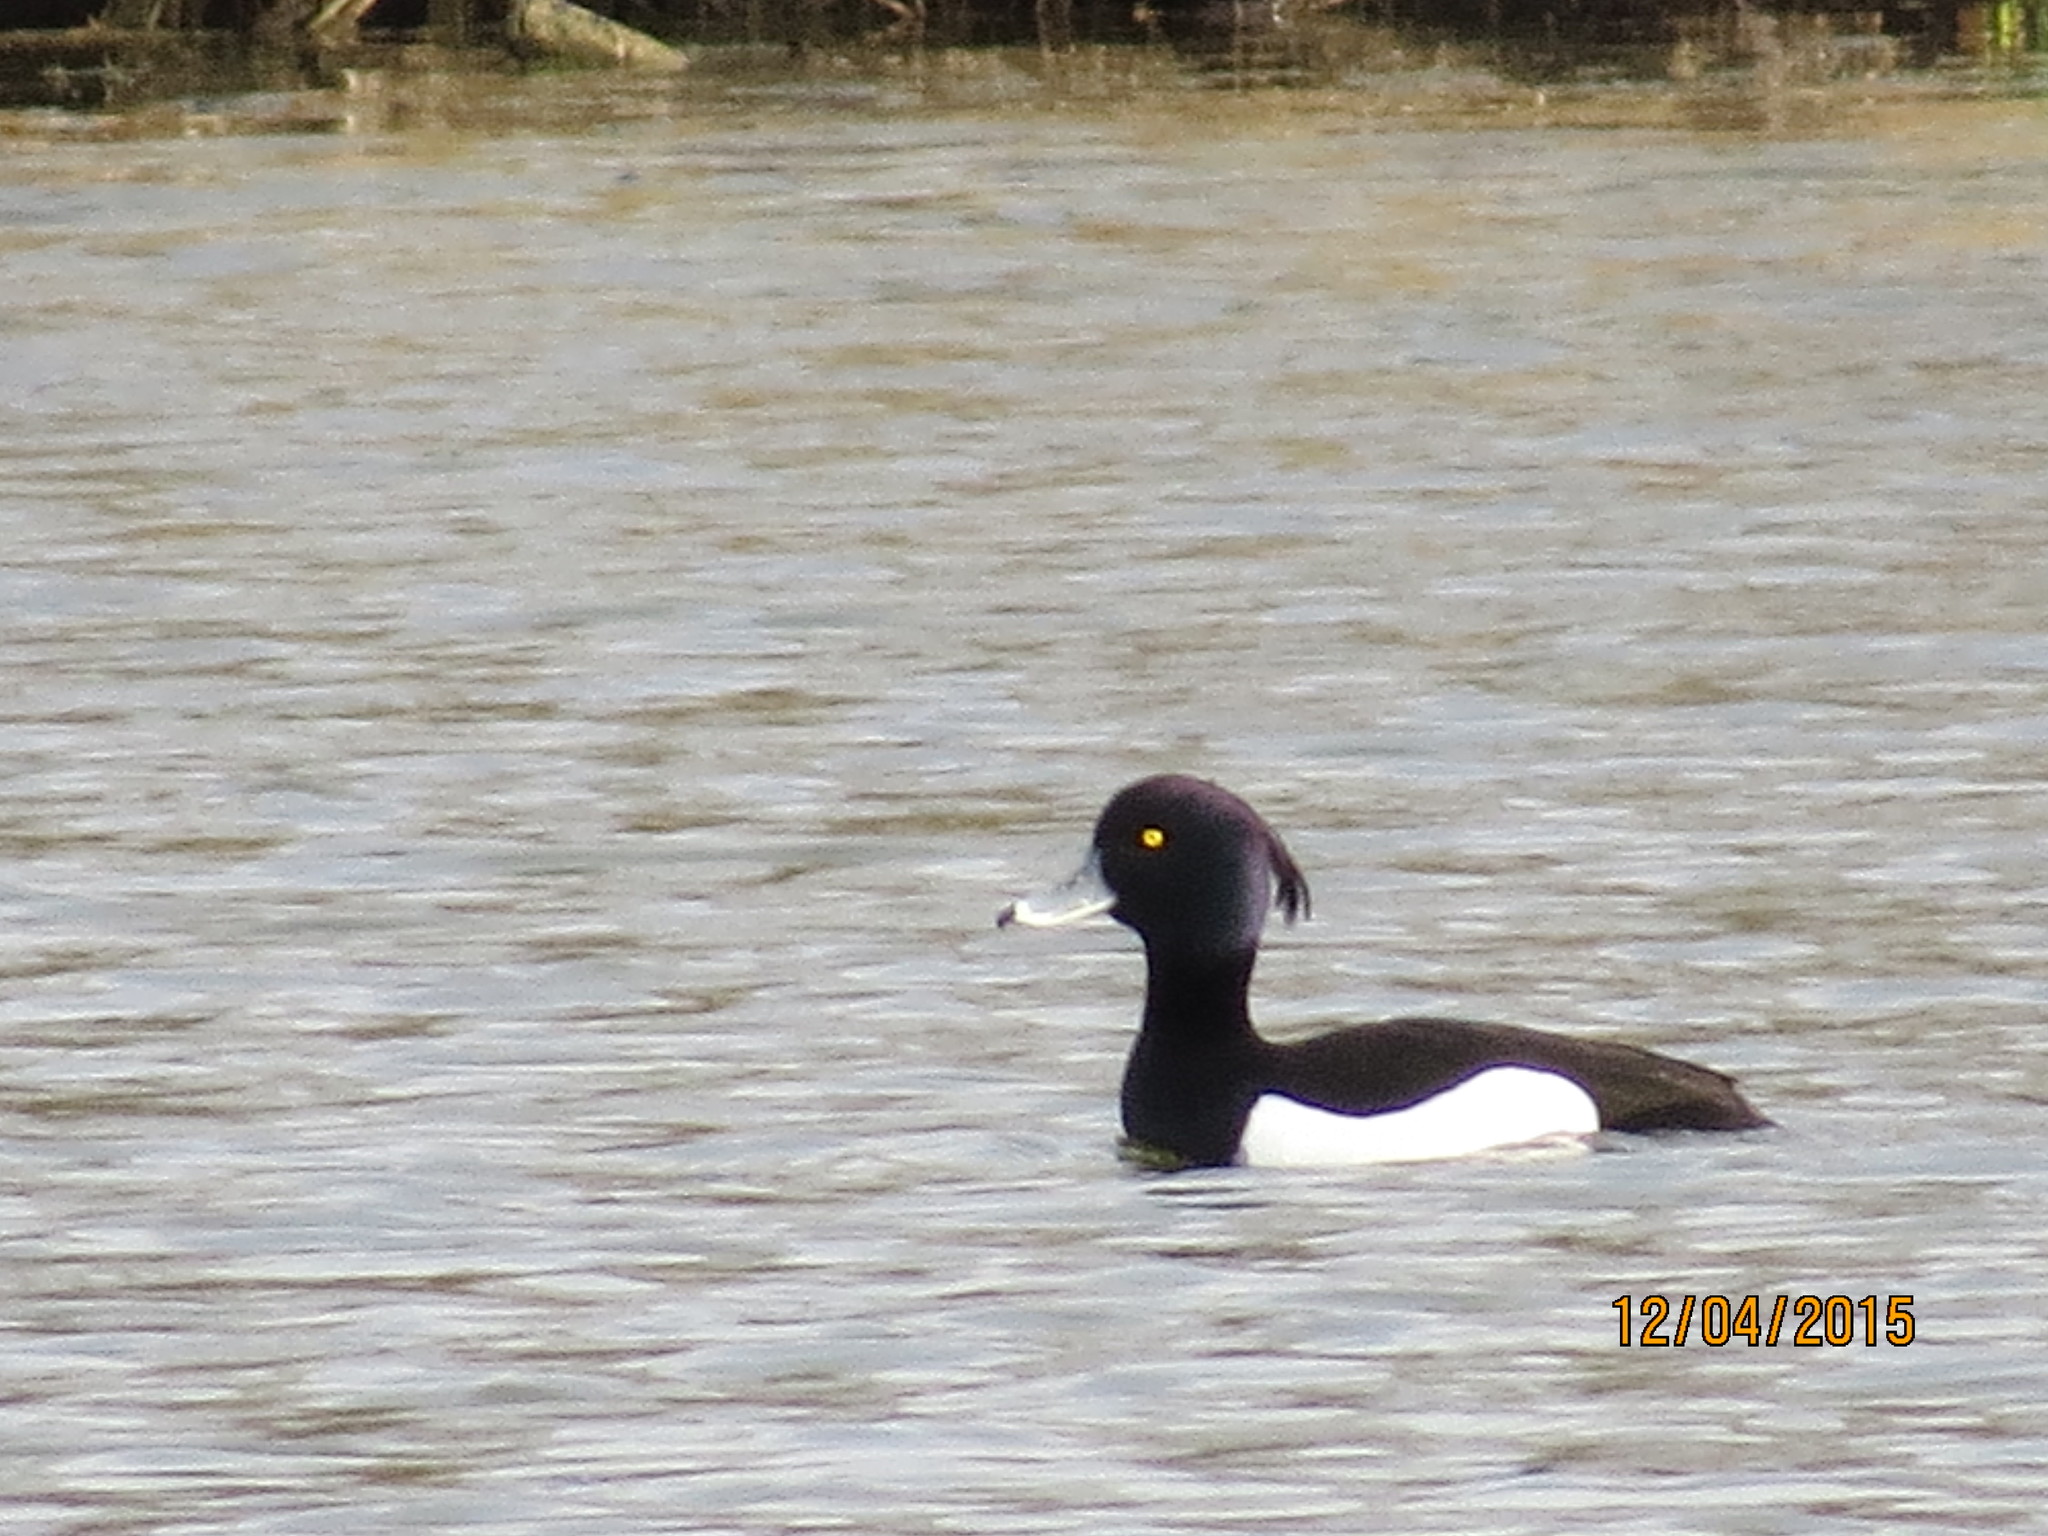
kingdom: Animalia
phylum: Chordata
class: Aves
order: Anseriformes
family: Anatidae
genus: Aythya
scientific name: Aythya fuligula
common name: Tufted duck
